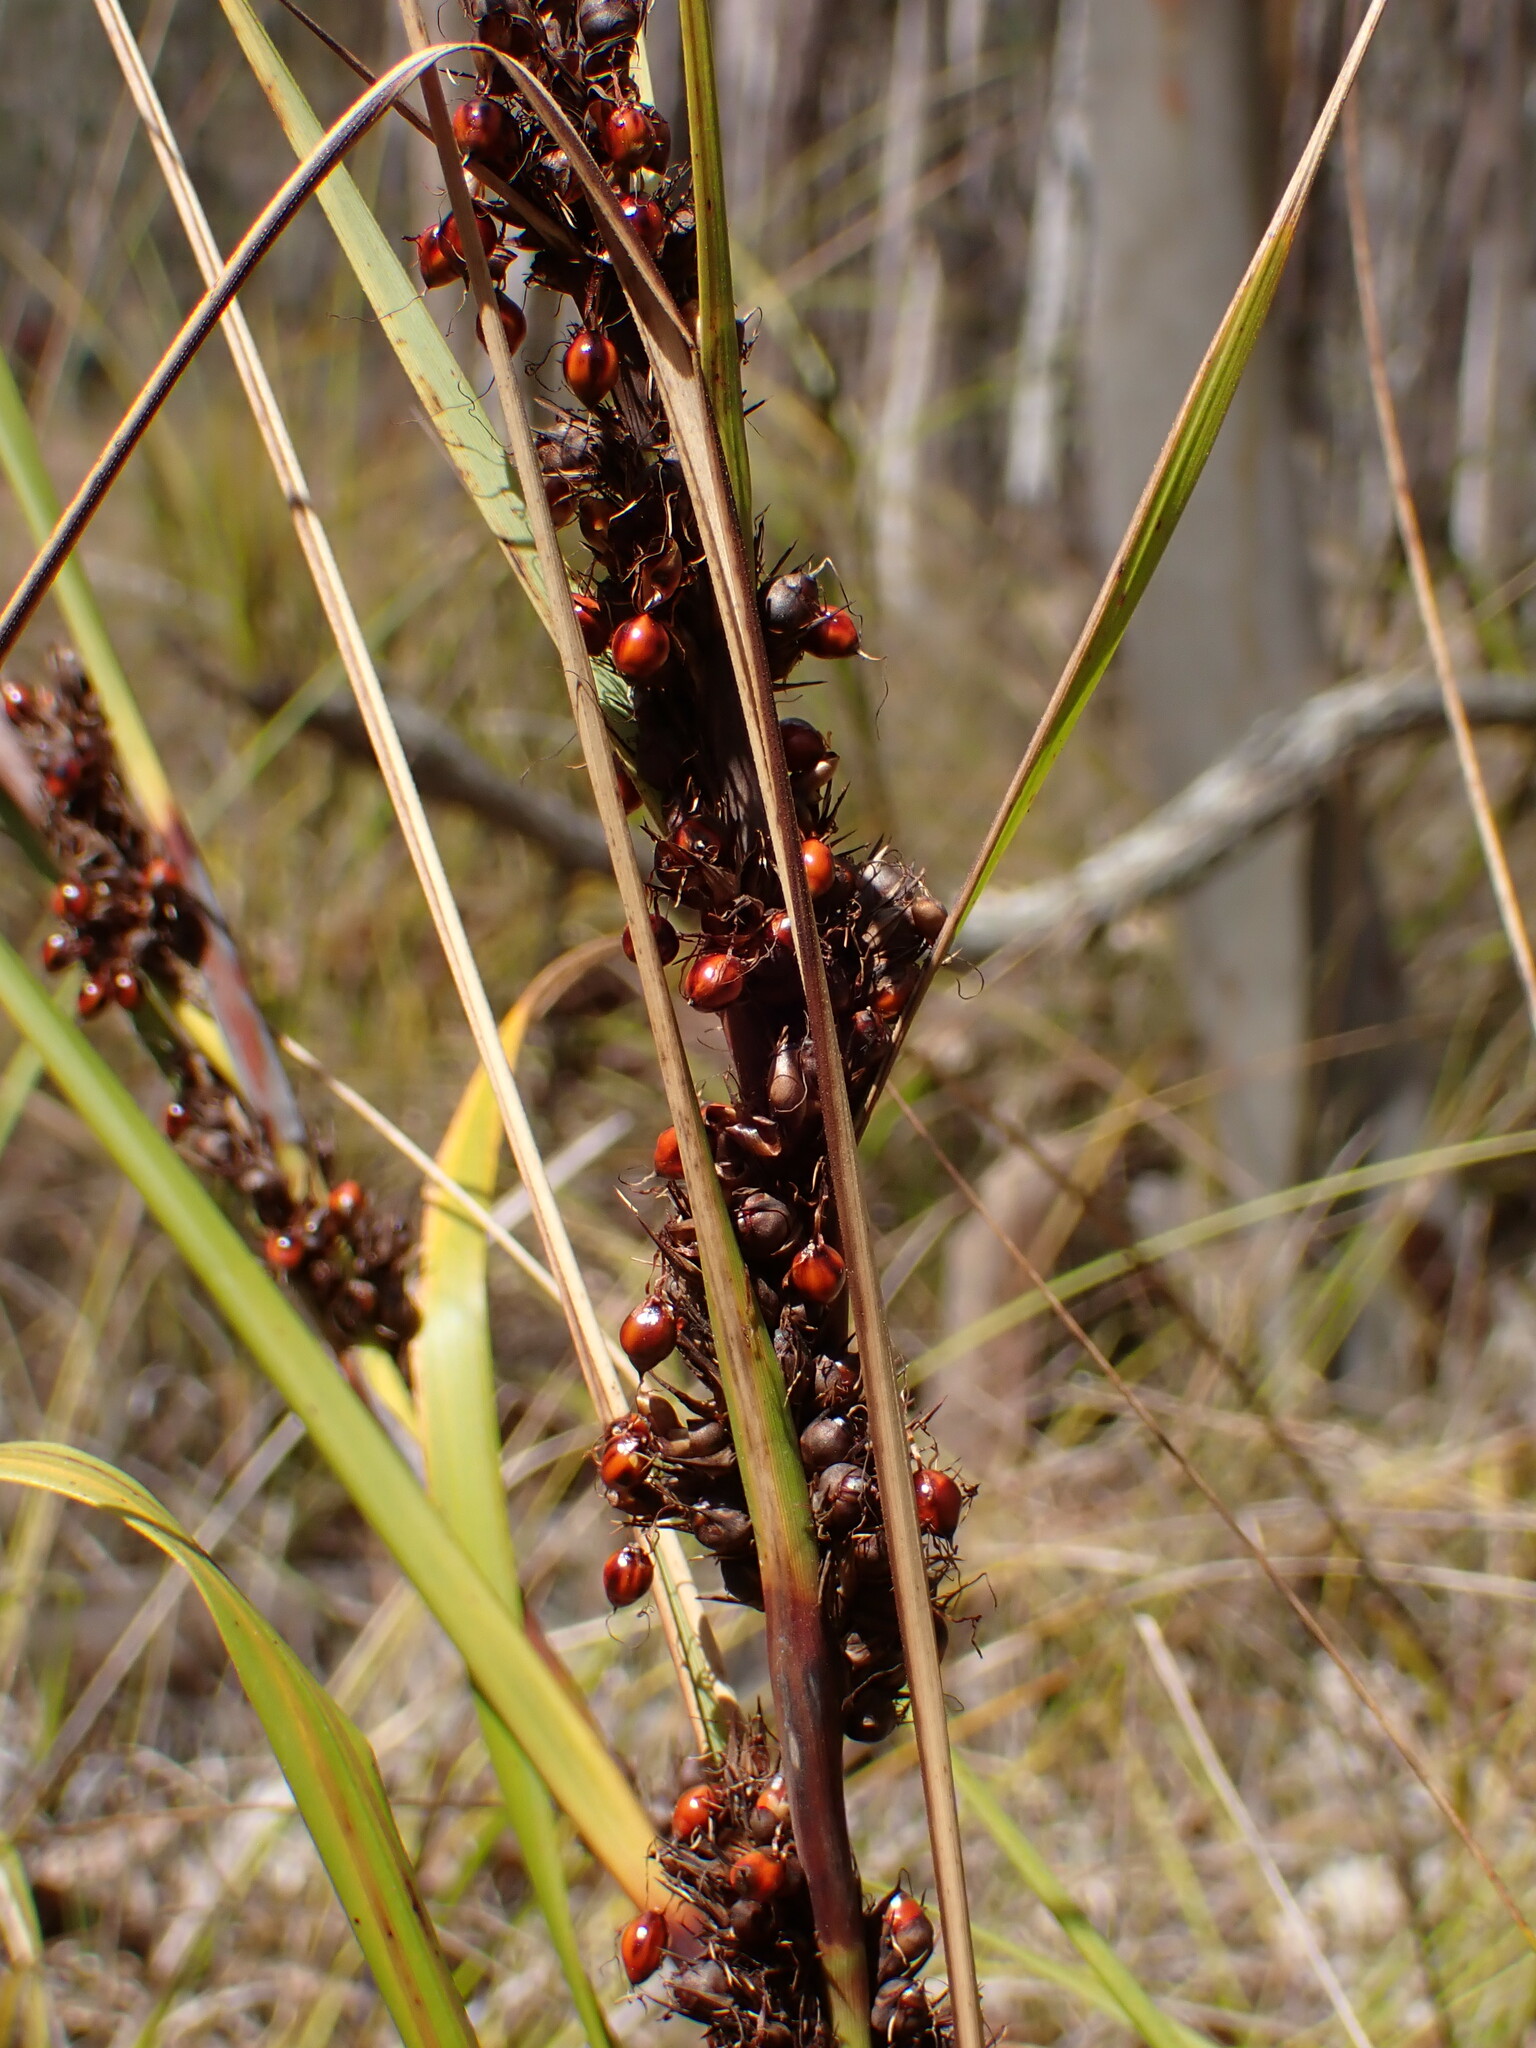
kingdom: Plantae
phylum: Tracheophyta
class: Liliopsida
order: Poales
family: Cyperaceae
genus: Gahnia
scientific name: Gahnia aspera
